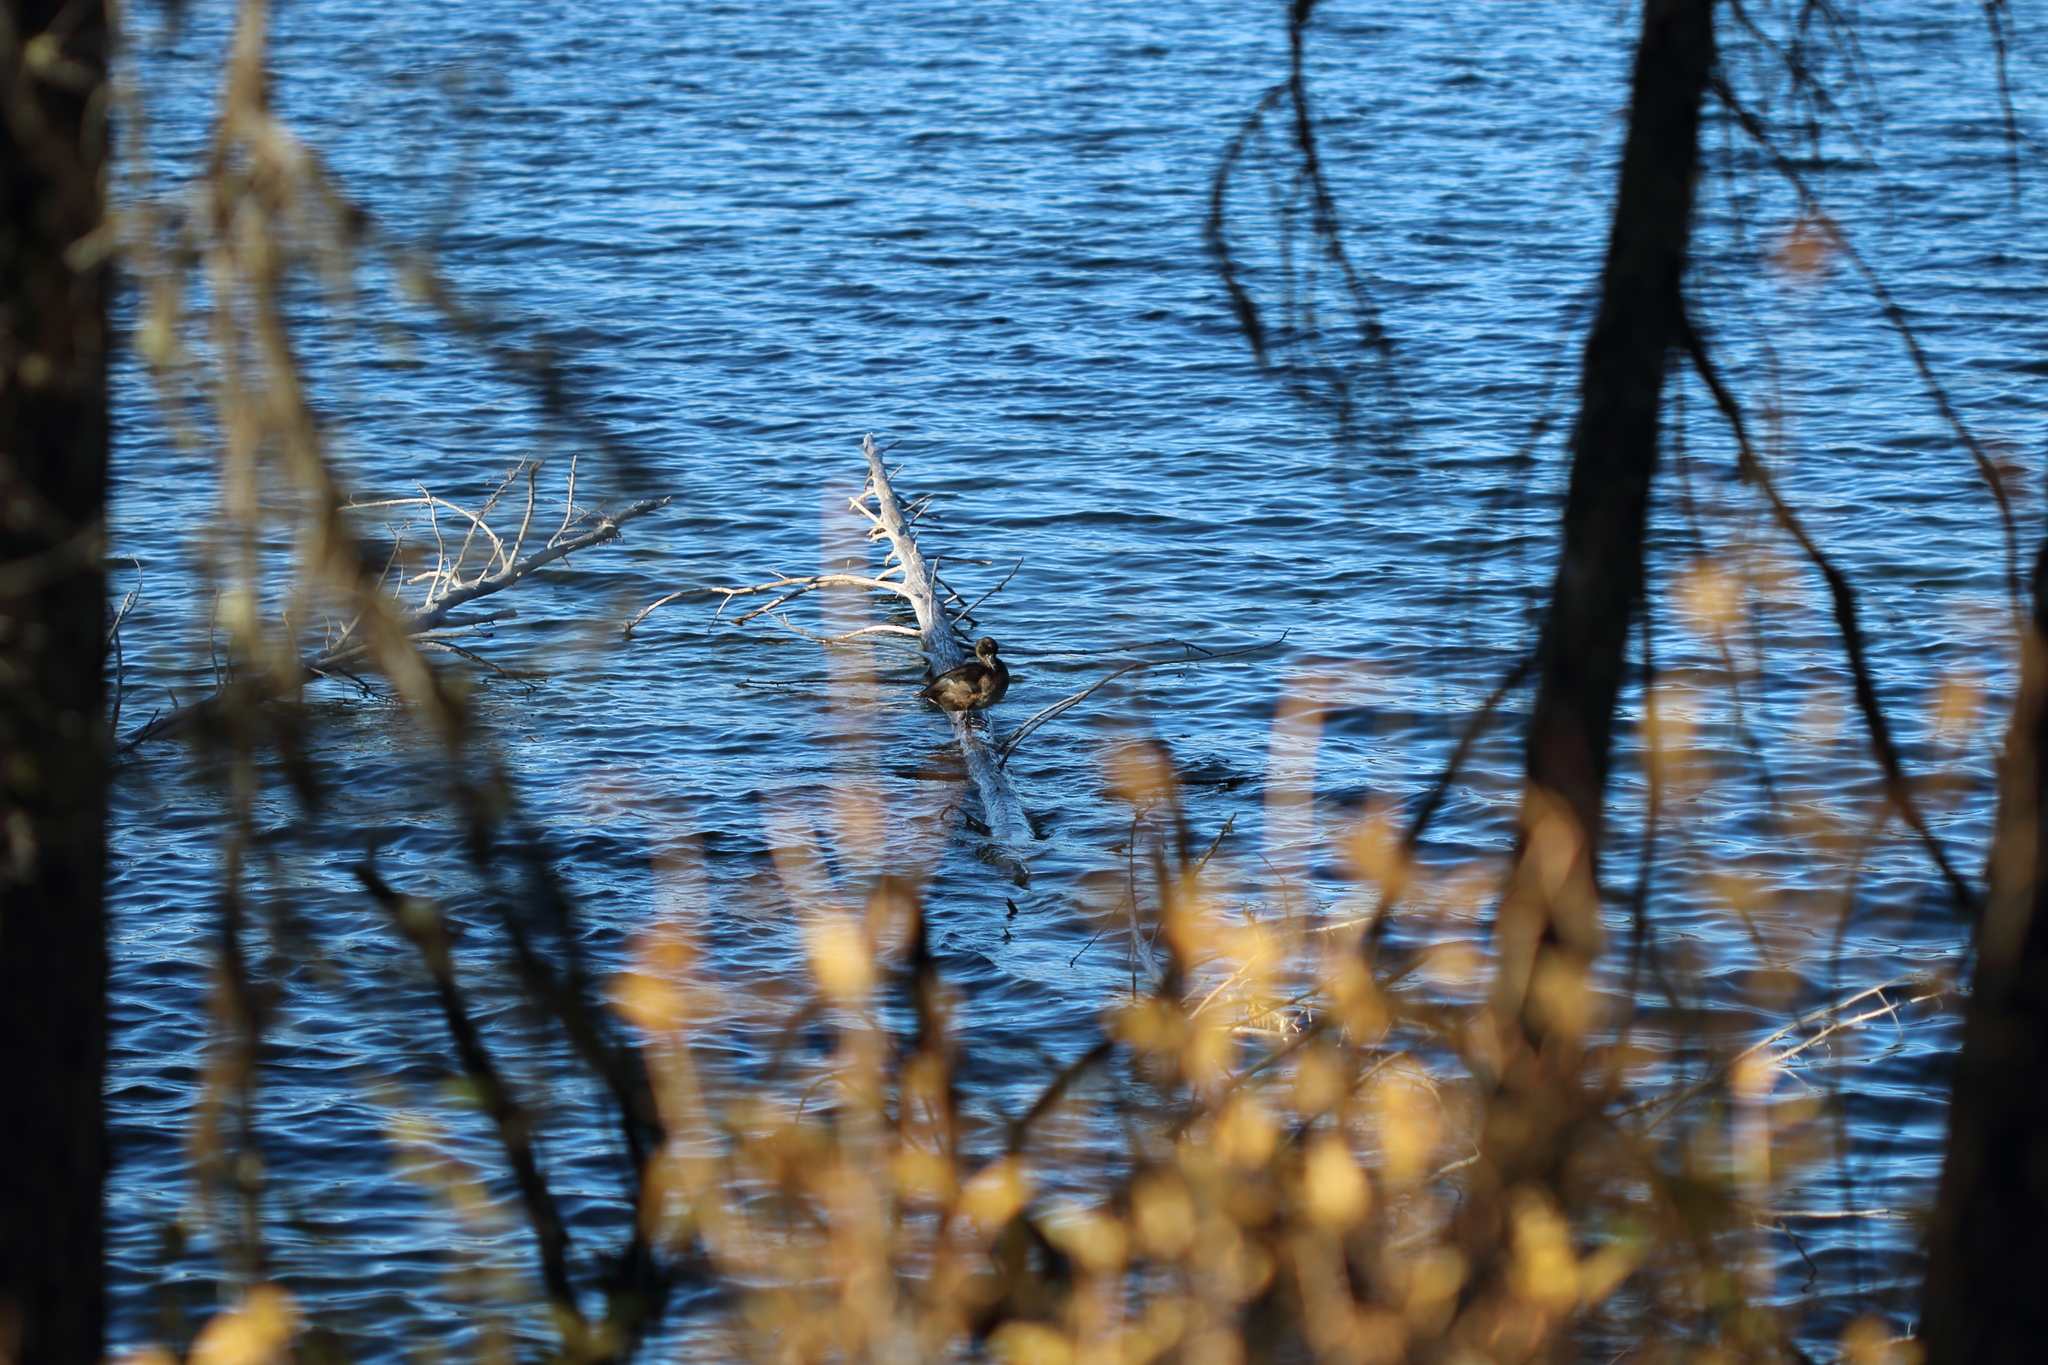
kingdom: Animalia
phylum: Chordata
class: Aves
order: Anseriformes
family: Anatidae
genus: Aythya
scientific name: Aythya collaris
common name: Ring-necked duck
